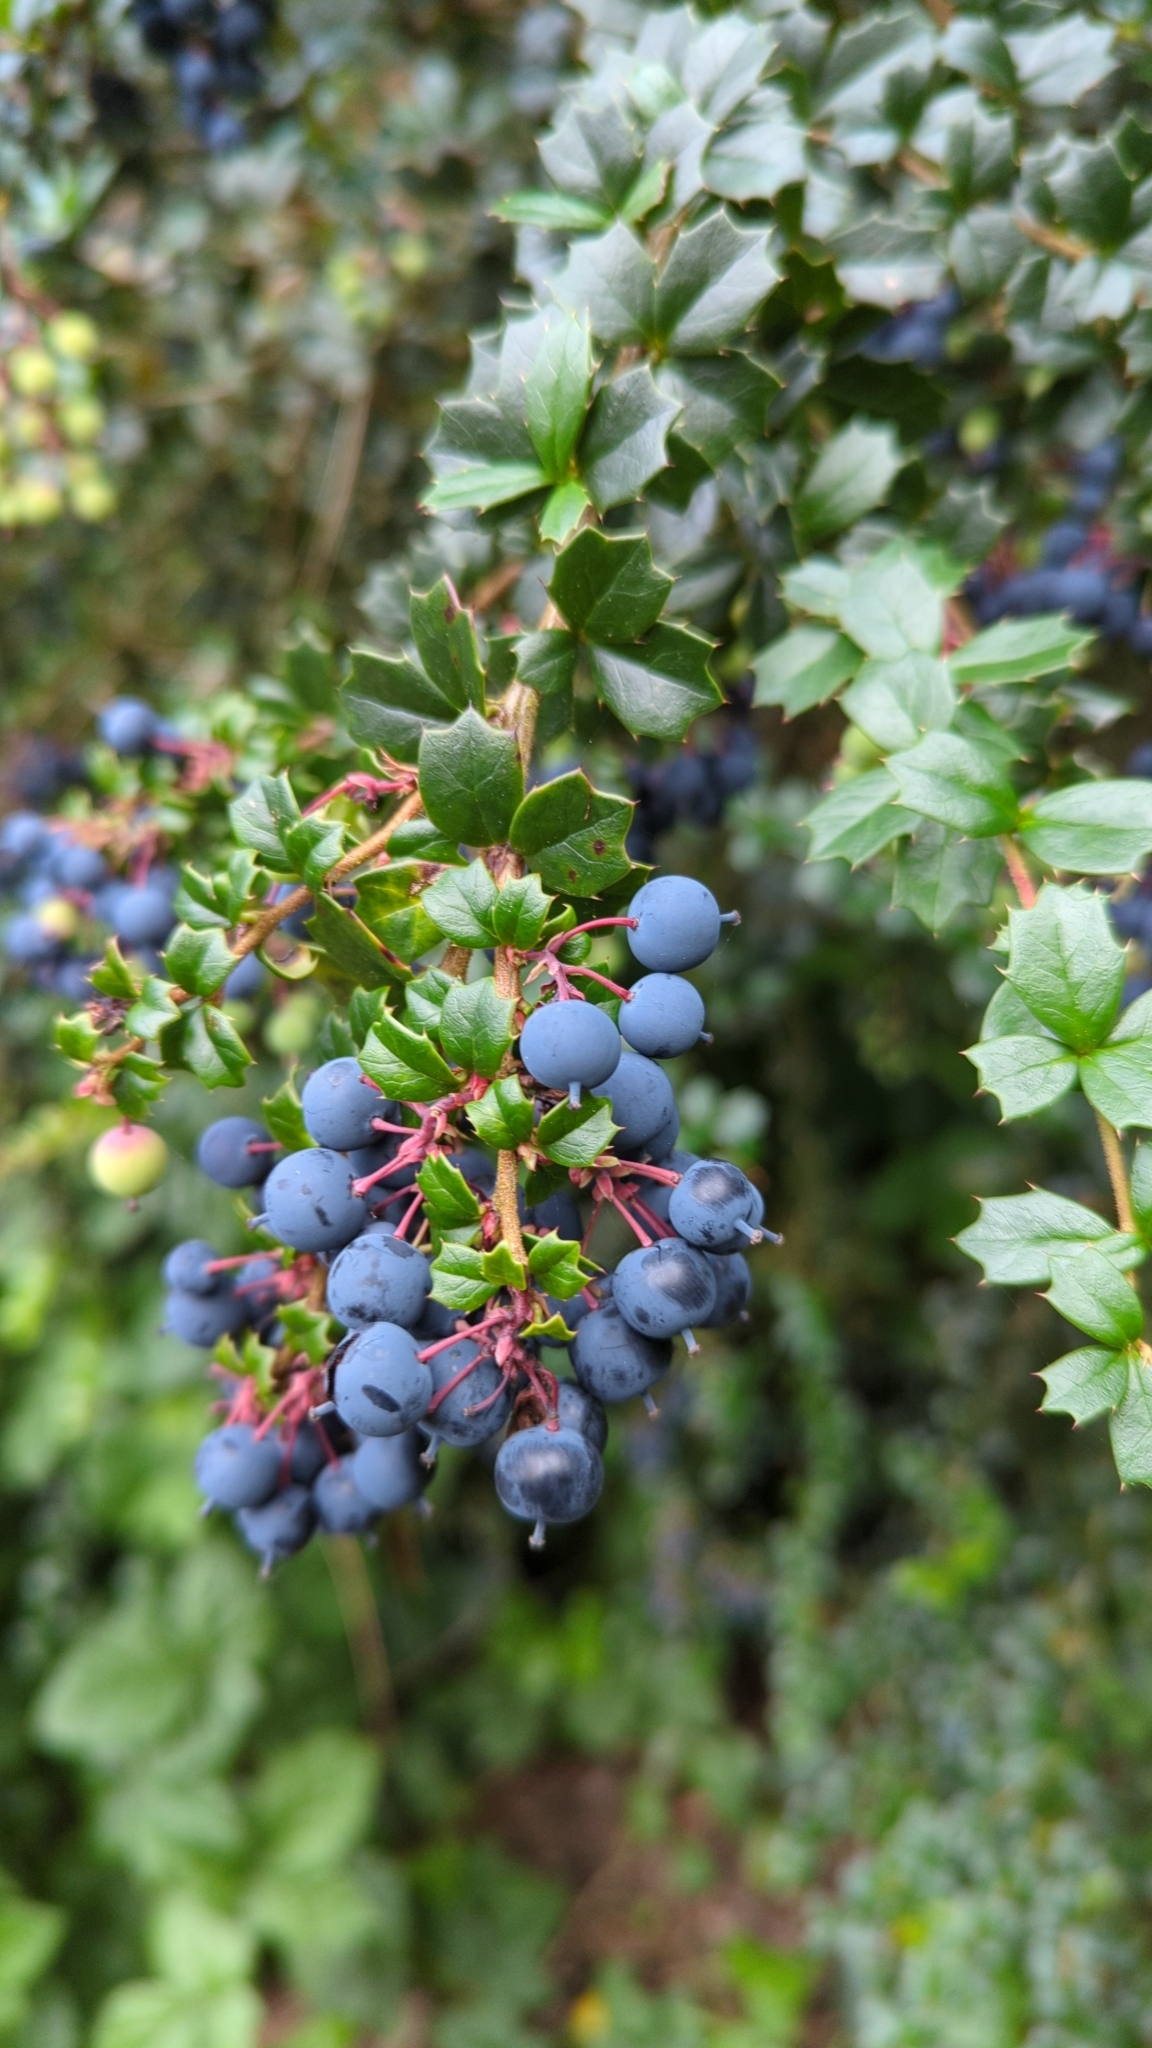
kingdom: Plantae
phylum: Tracheophyta
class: Magnoliopsida
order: Ranunculales
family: Berberidaceae
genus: Berberis
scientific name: Berberis darwinii
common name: Darwin's barberry
